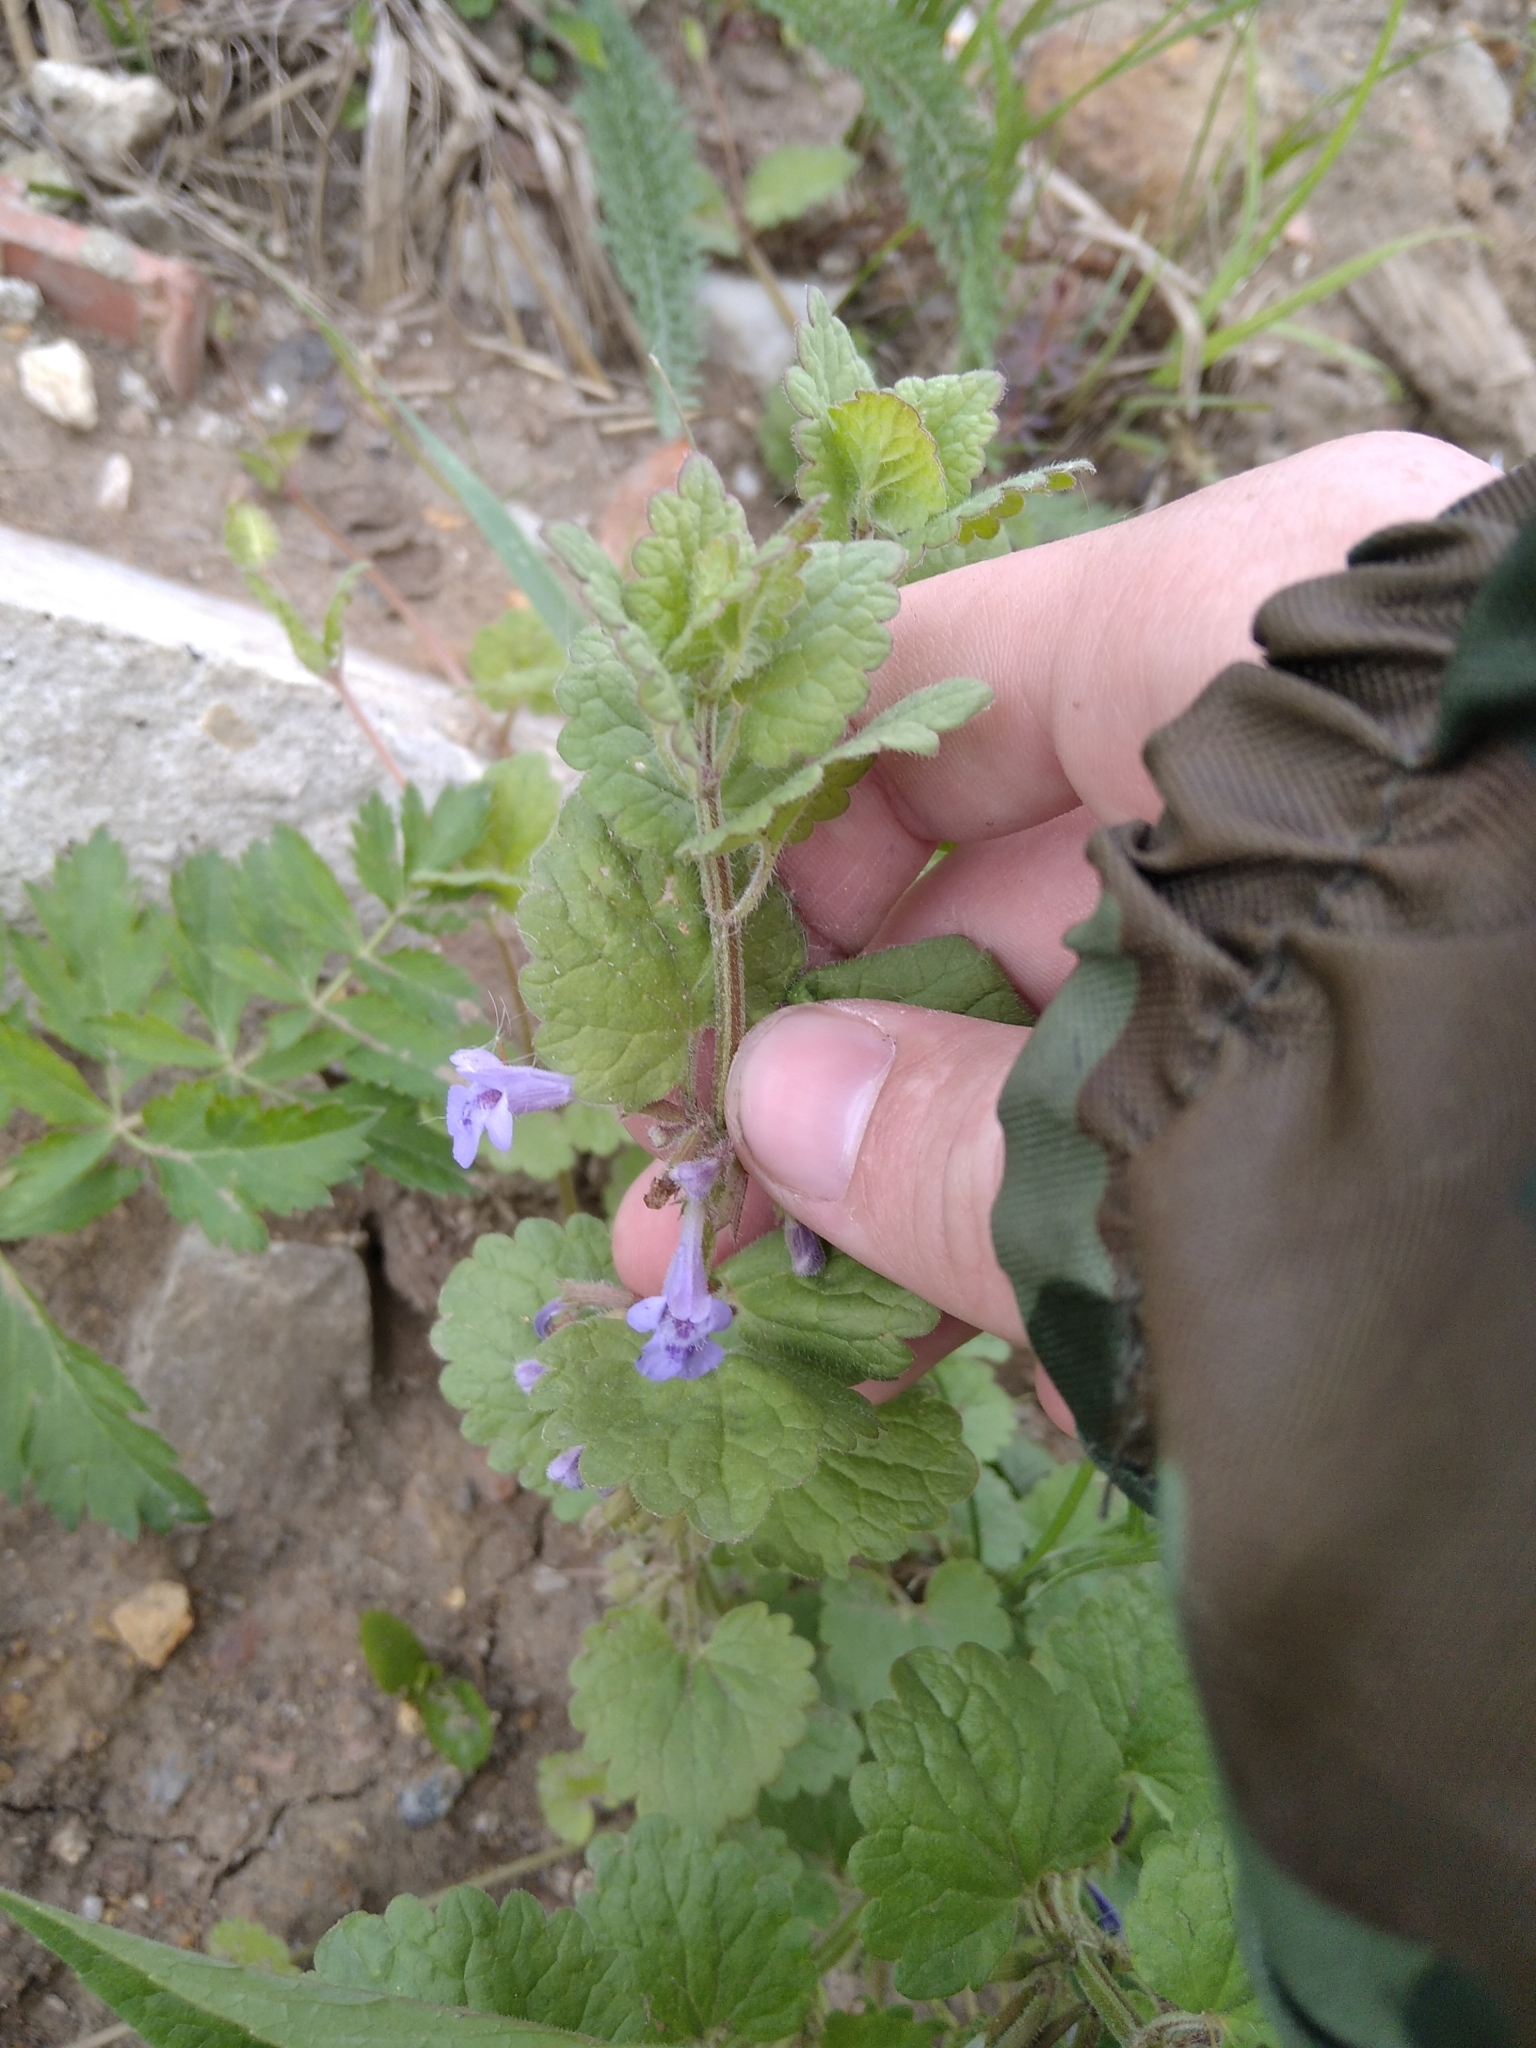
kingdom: Plantae
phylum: Tracheophyta
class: Magnoliopsida
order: Lamiales
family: Lamiaceae
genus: Glechoma
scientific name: Glechoma hederacea
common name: Ground ivy
